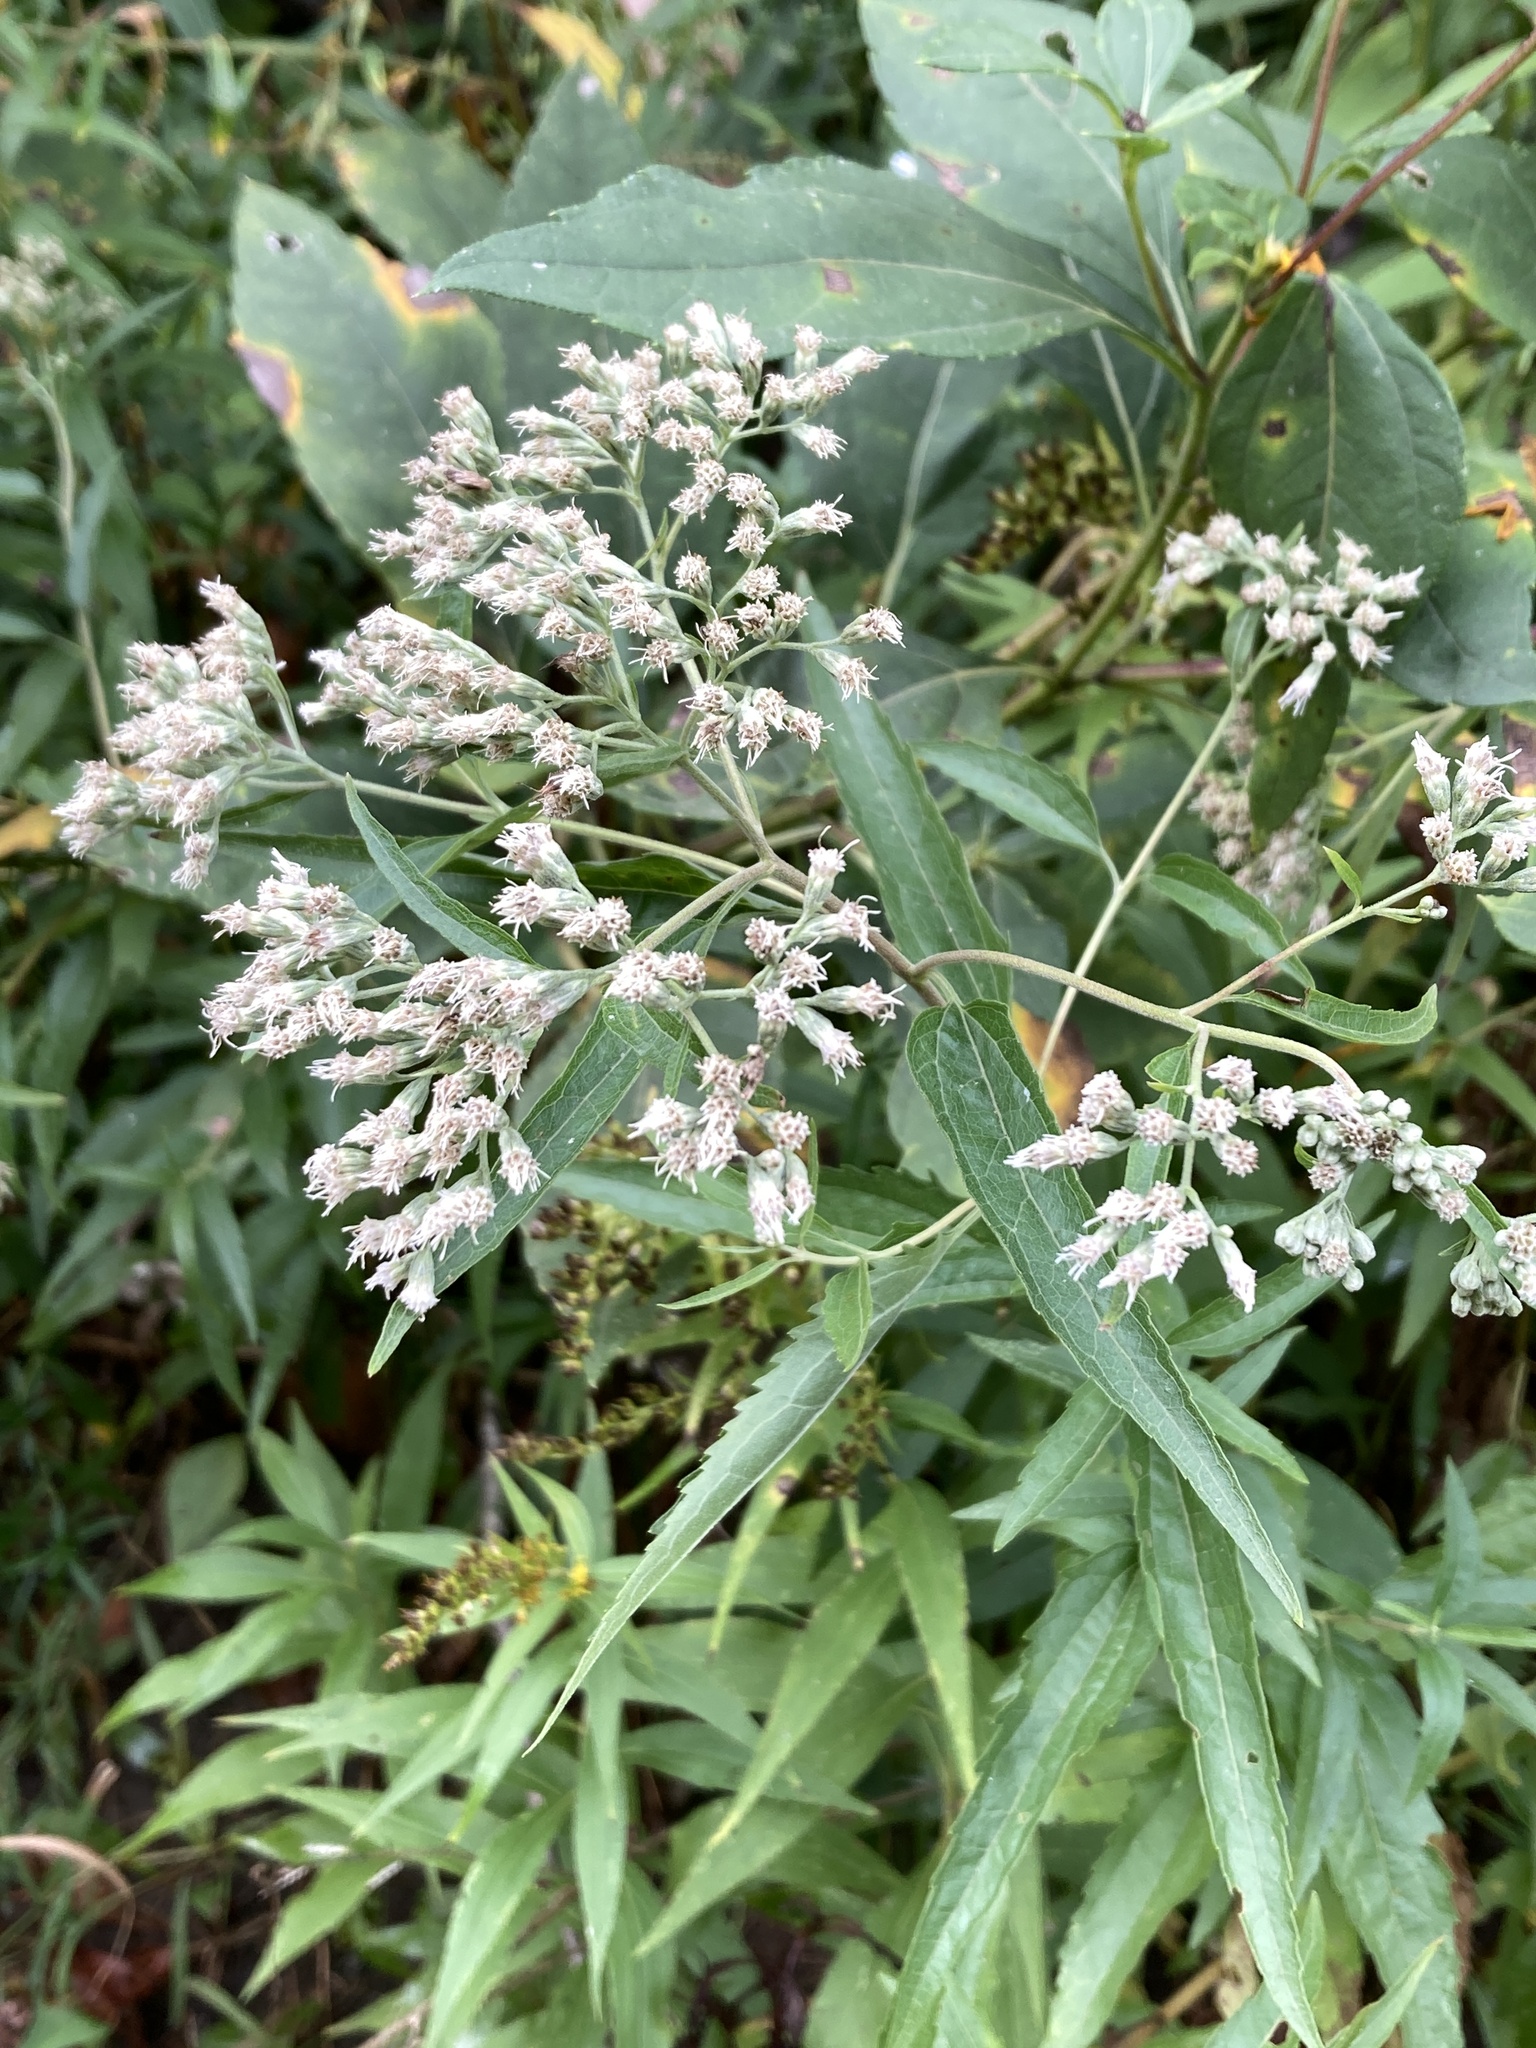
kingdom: Plantae
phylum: Tracheophyta
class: Magnoliopsida
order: Asterales
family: Asteraceae
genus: Eupatorium
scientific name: Eupatorium serotinum
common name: Late boneset
